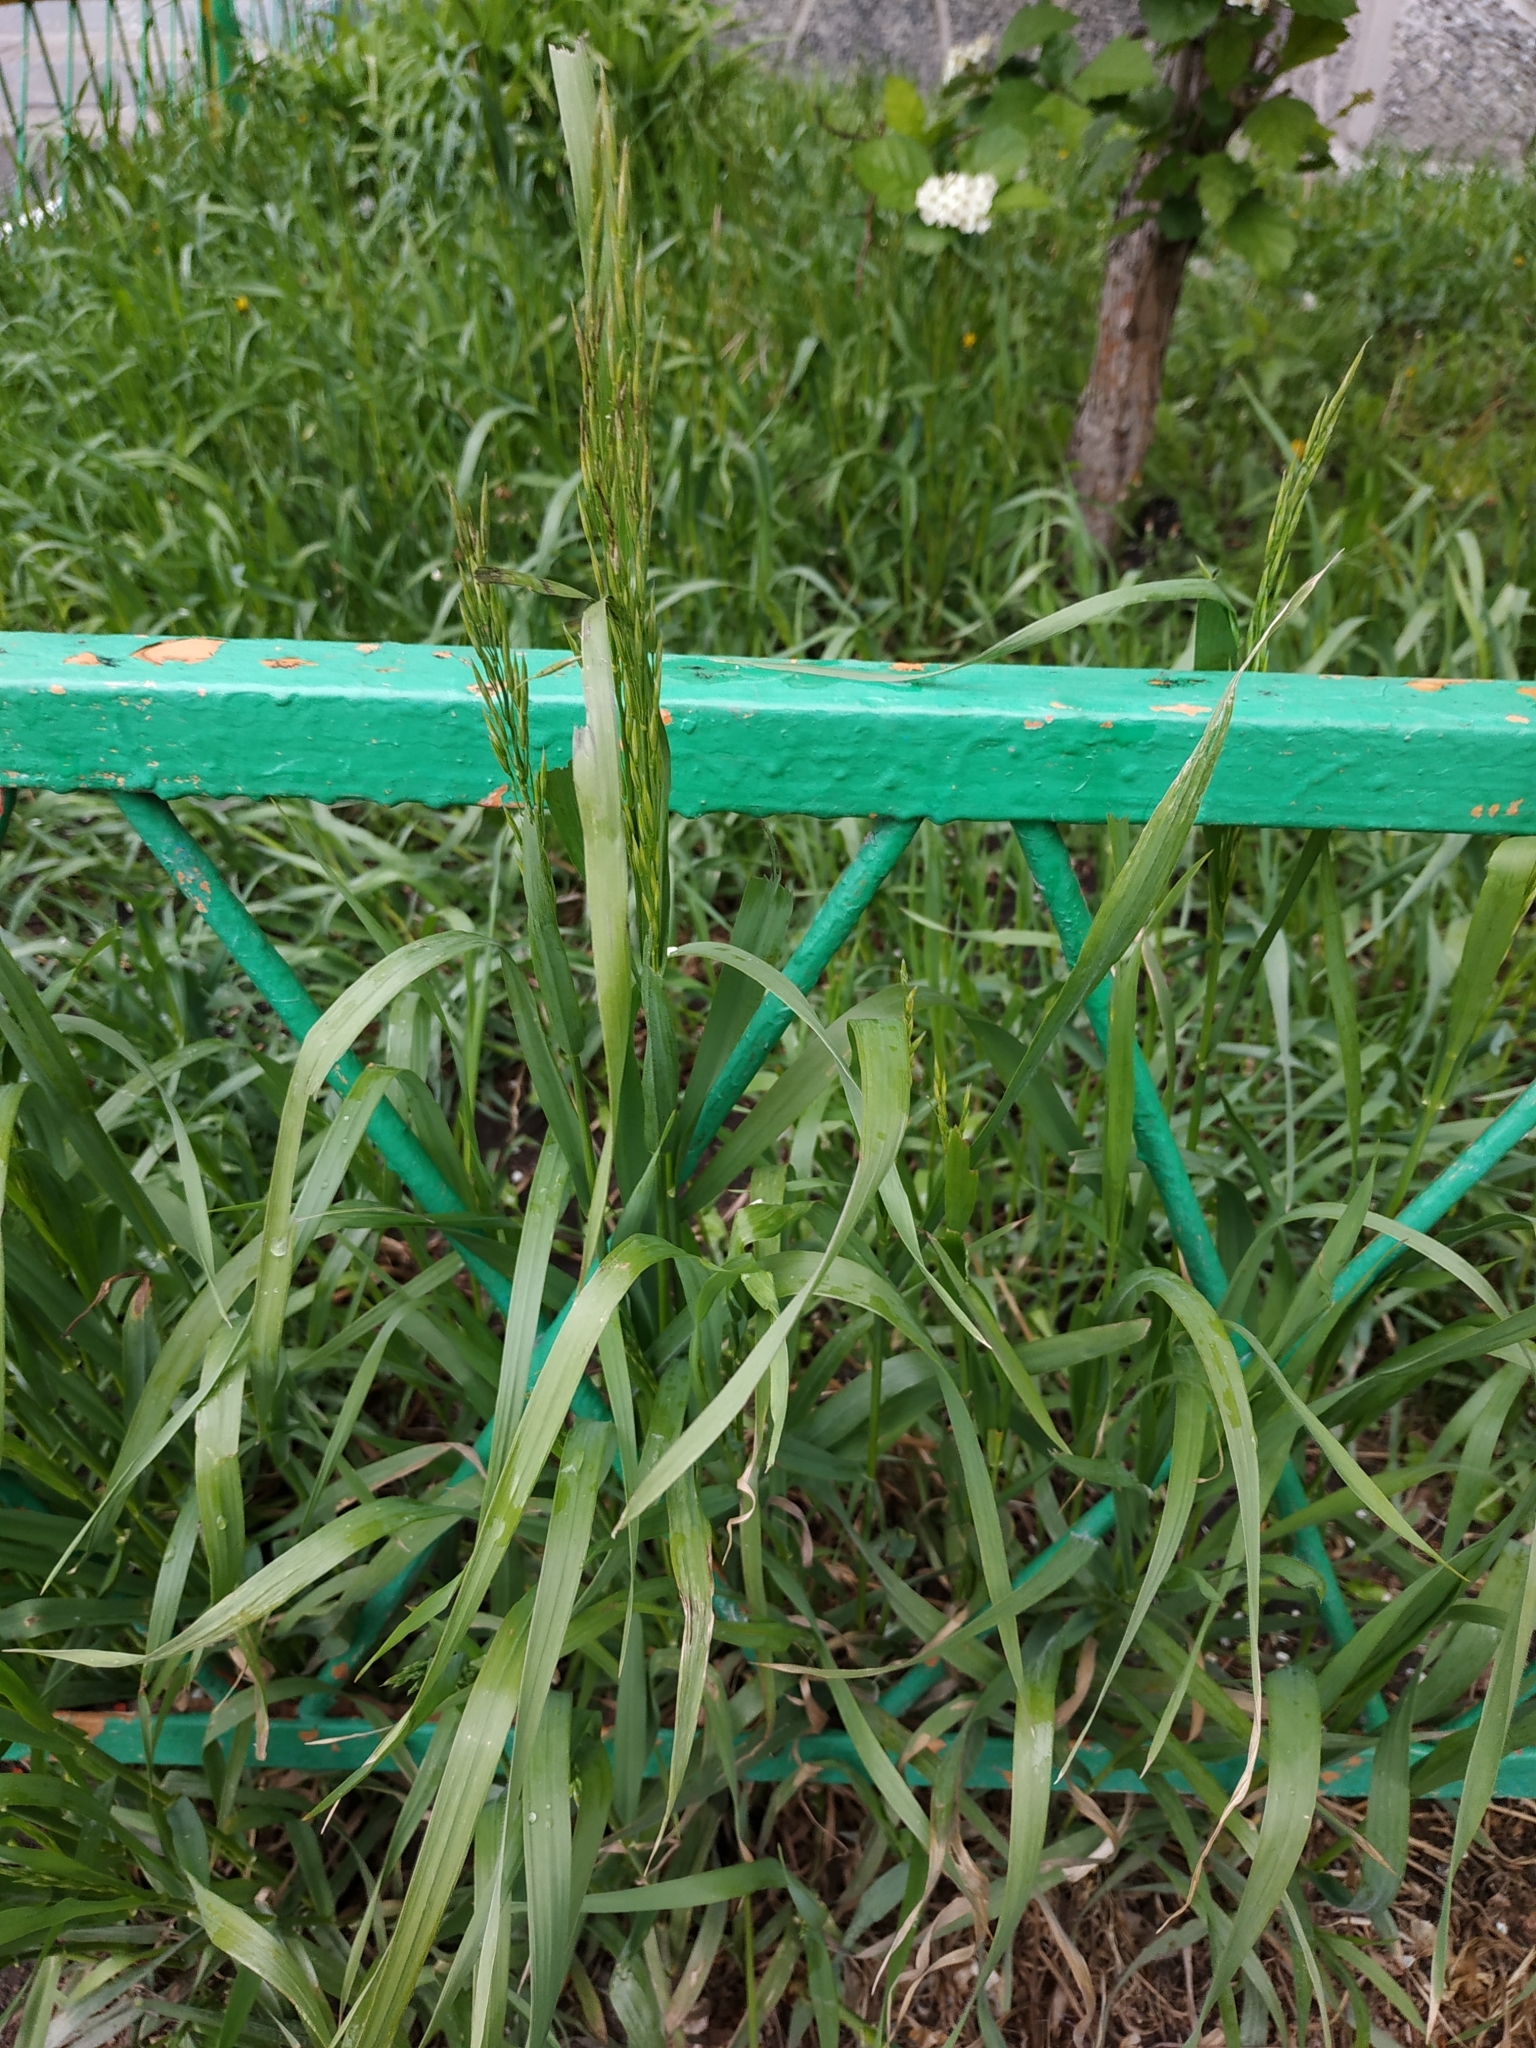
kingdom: Plantae
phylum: Tracheophyta
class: Liliopsida
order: Poales
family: Poaceae
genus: Bromus
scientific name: Bromus inermis
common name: Smooth brome
